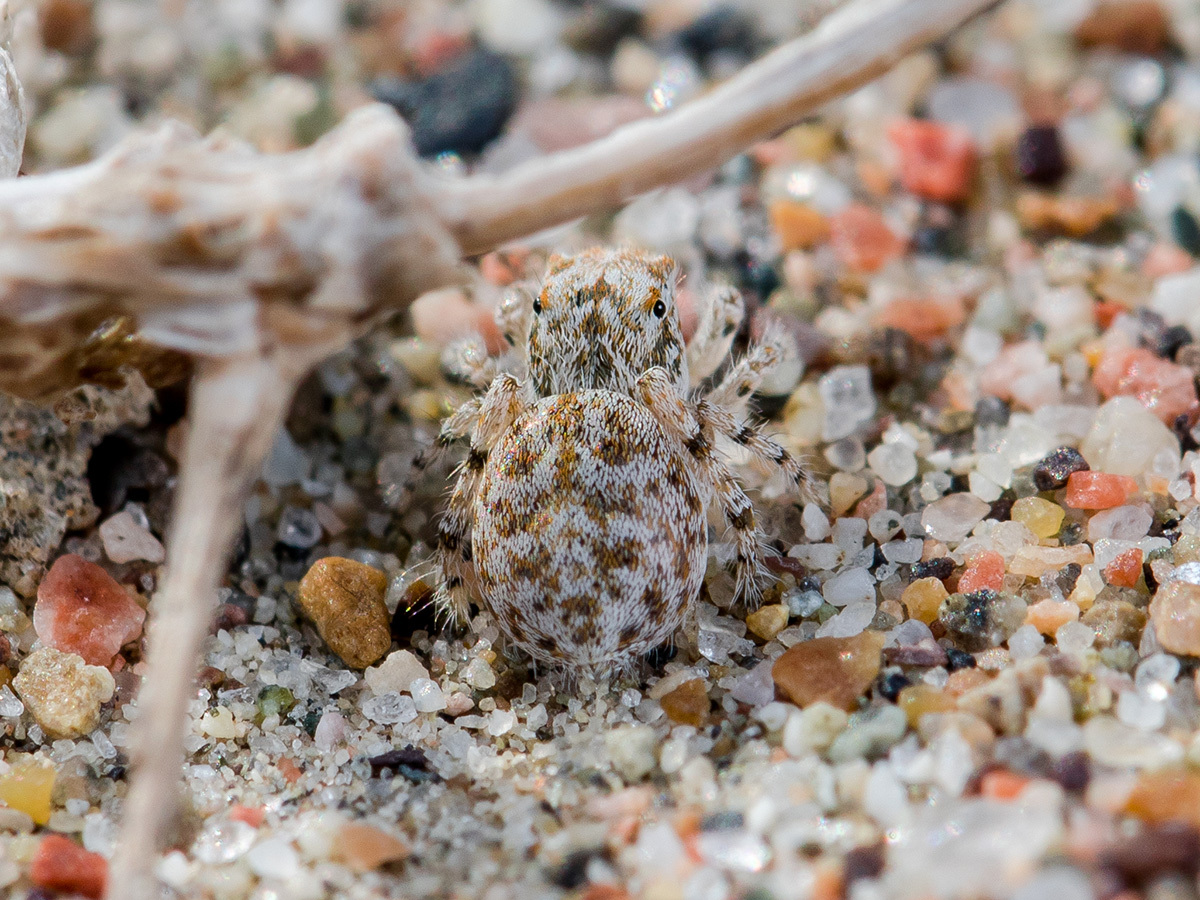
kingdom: Animalia
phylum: Arthropoda
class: Arachnida
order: Araneae
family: Salticidae
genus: Yllenus
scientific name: Yllenus uiguricus
